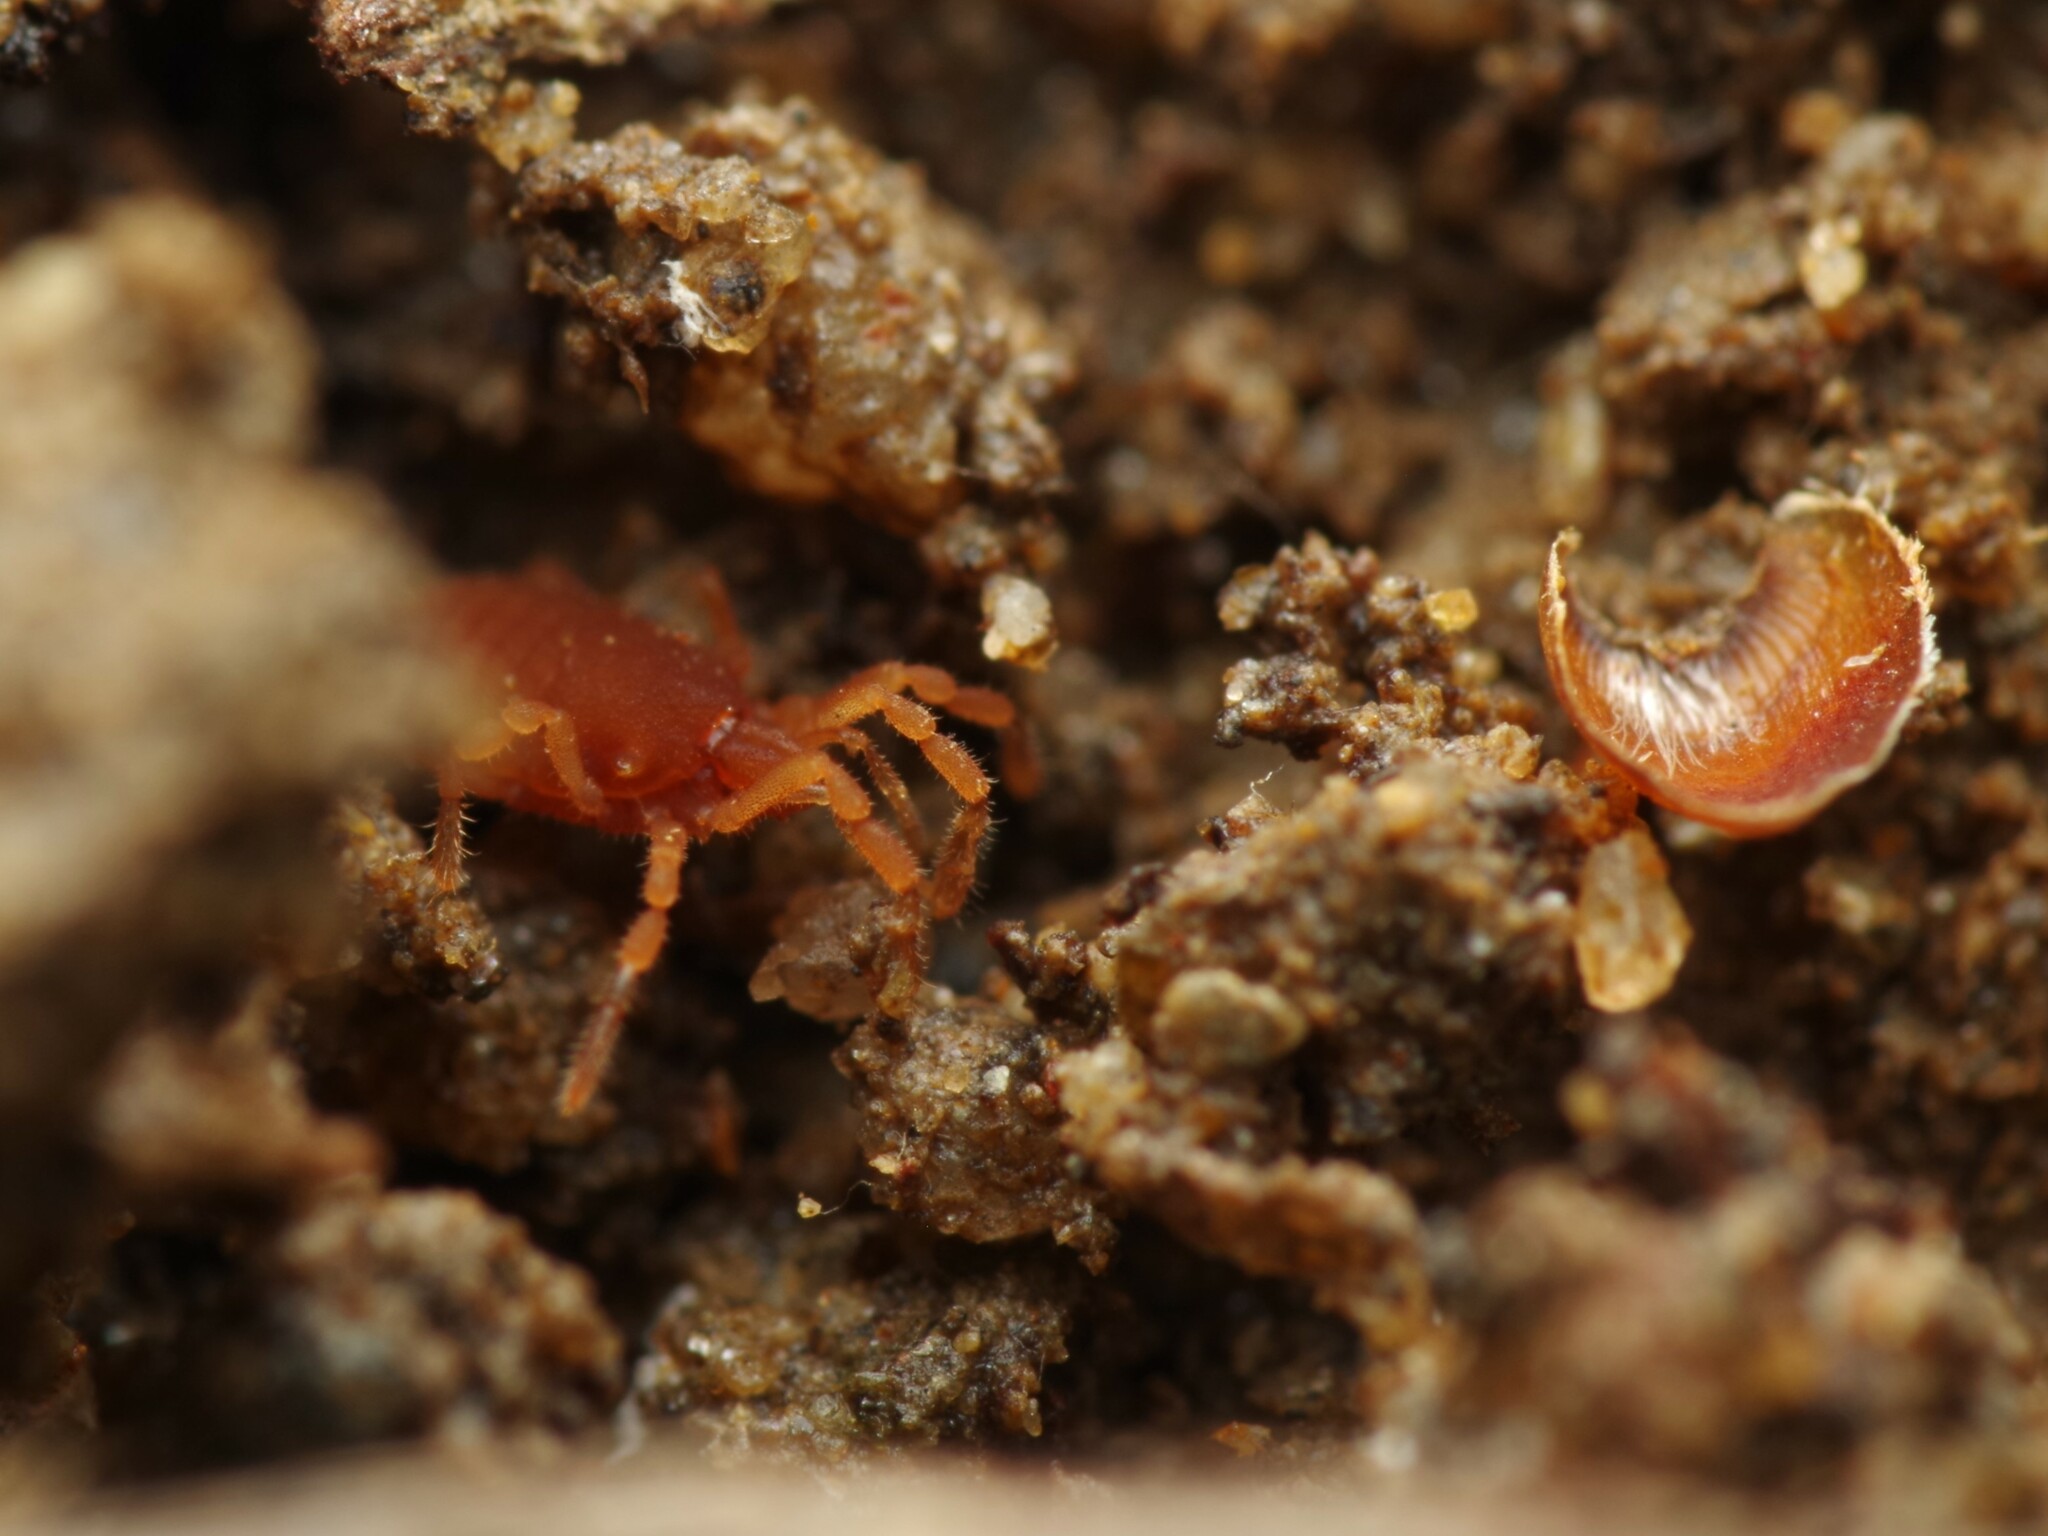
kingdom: Animalia
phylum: Arthropoda
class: Arachnida
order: Opiliones
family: Sironidae
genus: Siro
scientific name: Siro rubens
